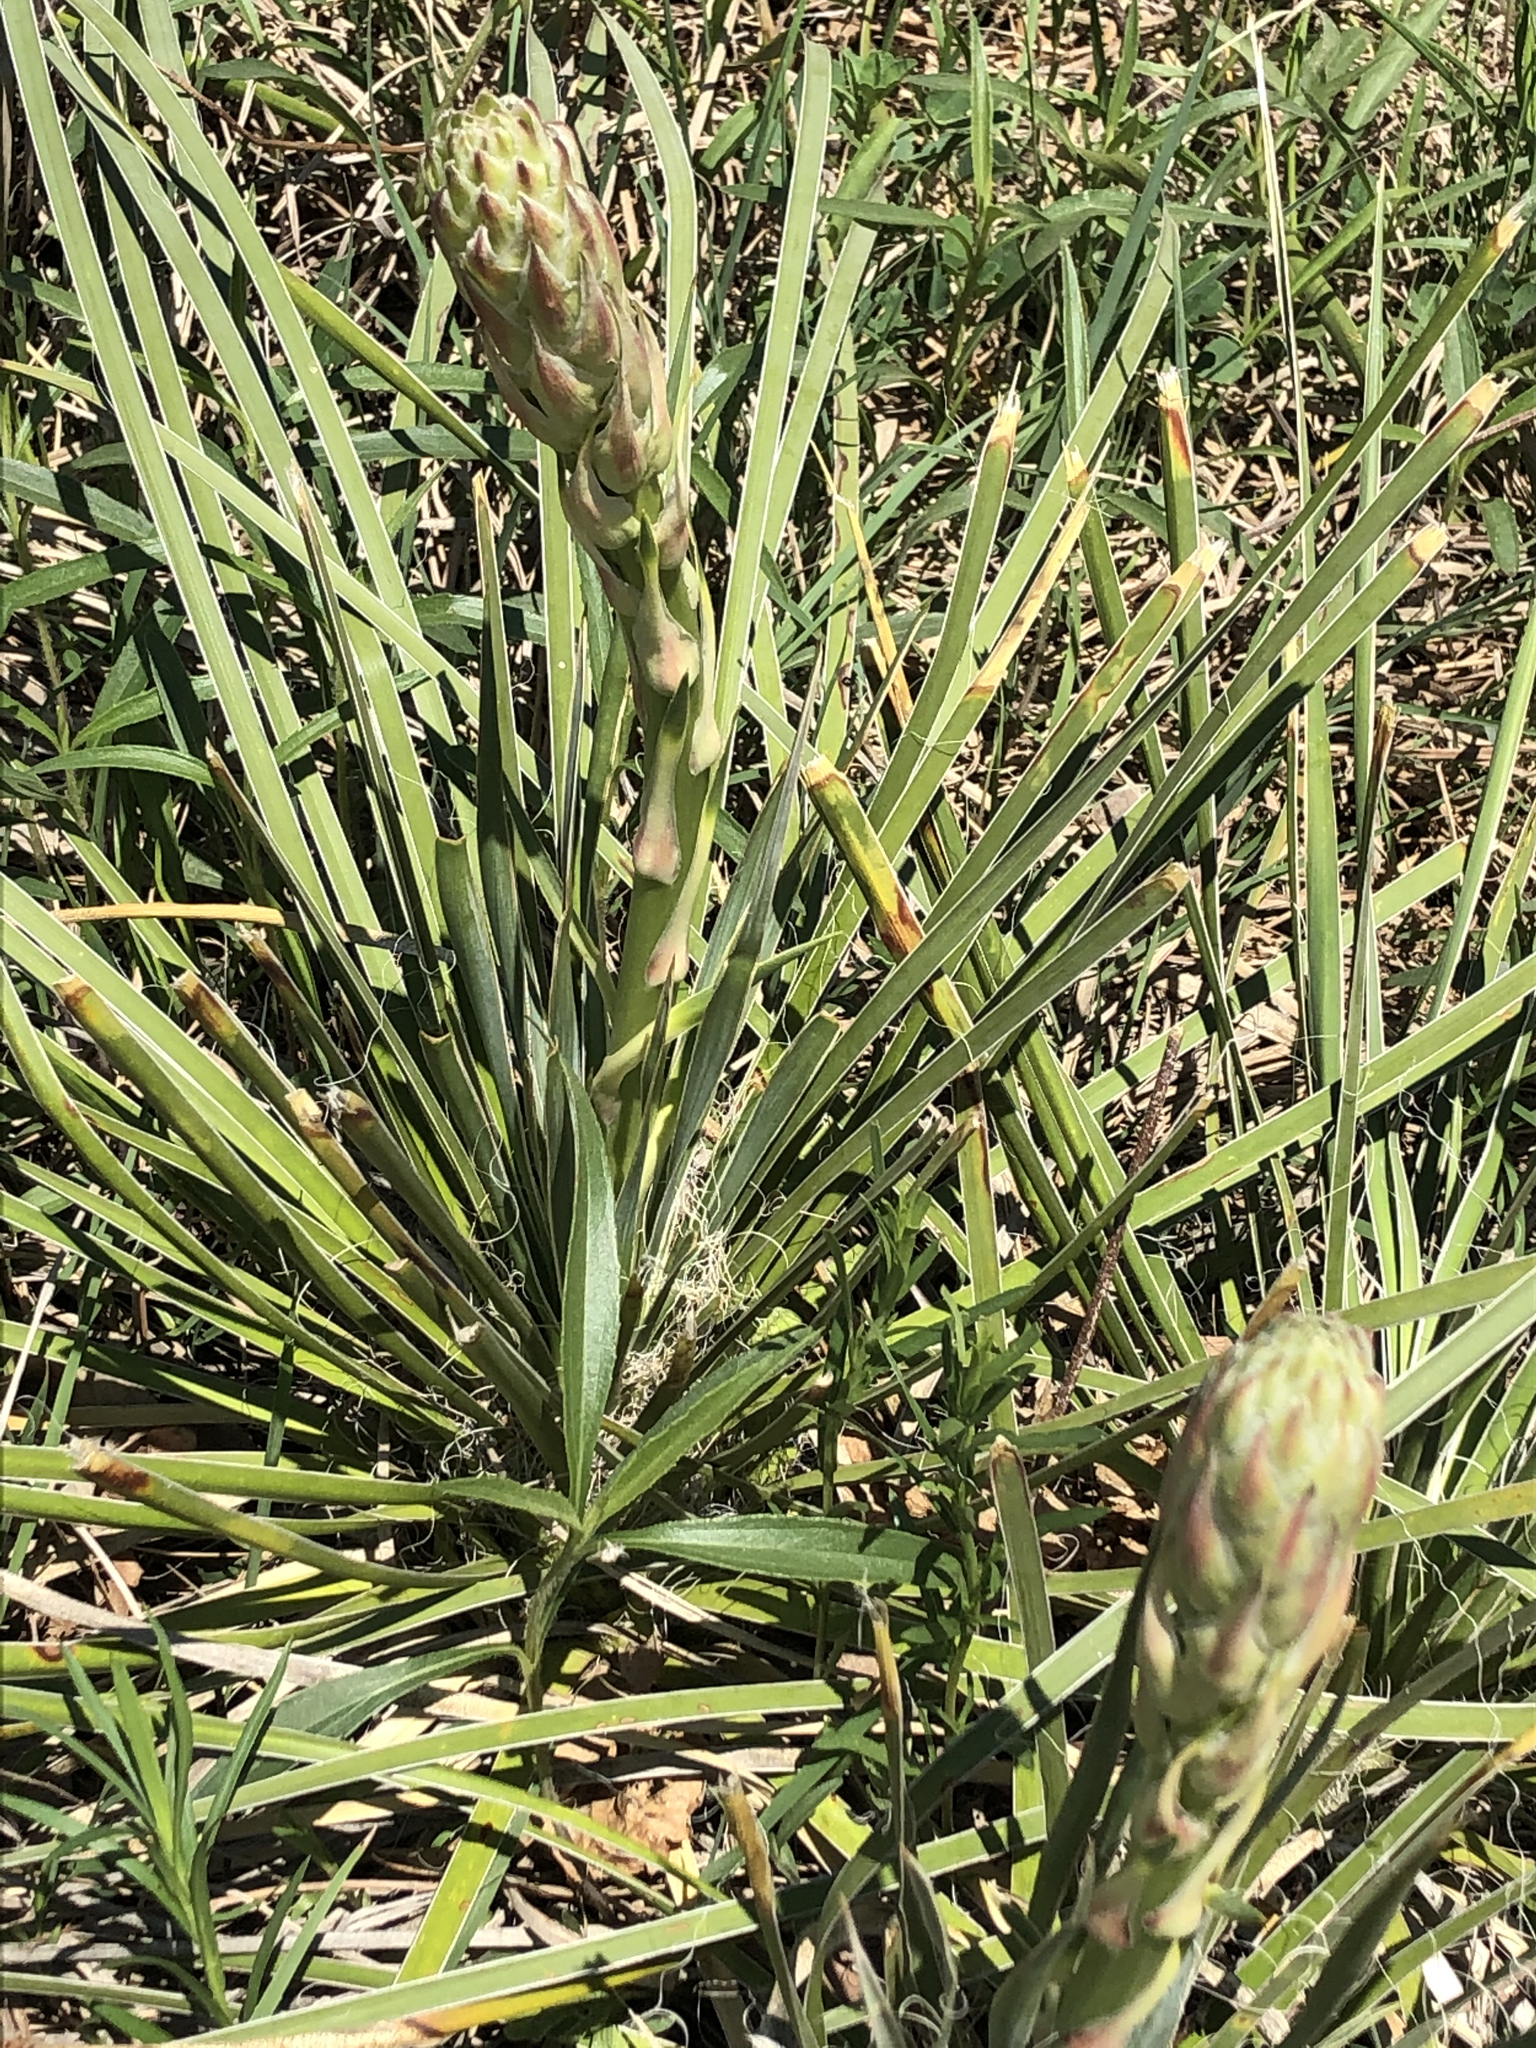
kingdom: Plantae
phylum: Tracheophyta
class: Liliopsida
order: Asparagales
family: Asparagaceae
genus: Yucca
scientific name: Yucca glauca
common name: Great plains yucca
